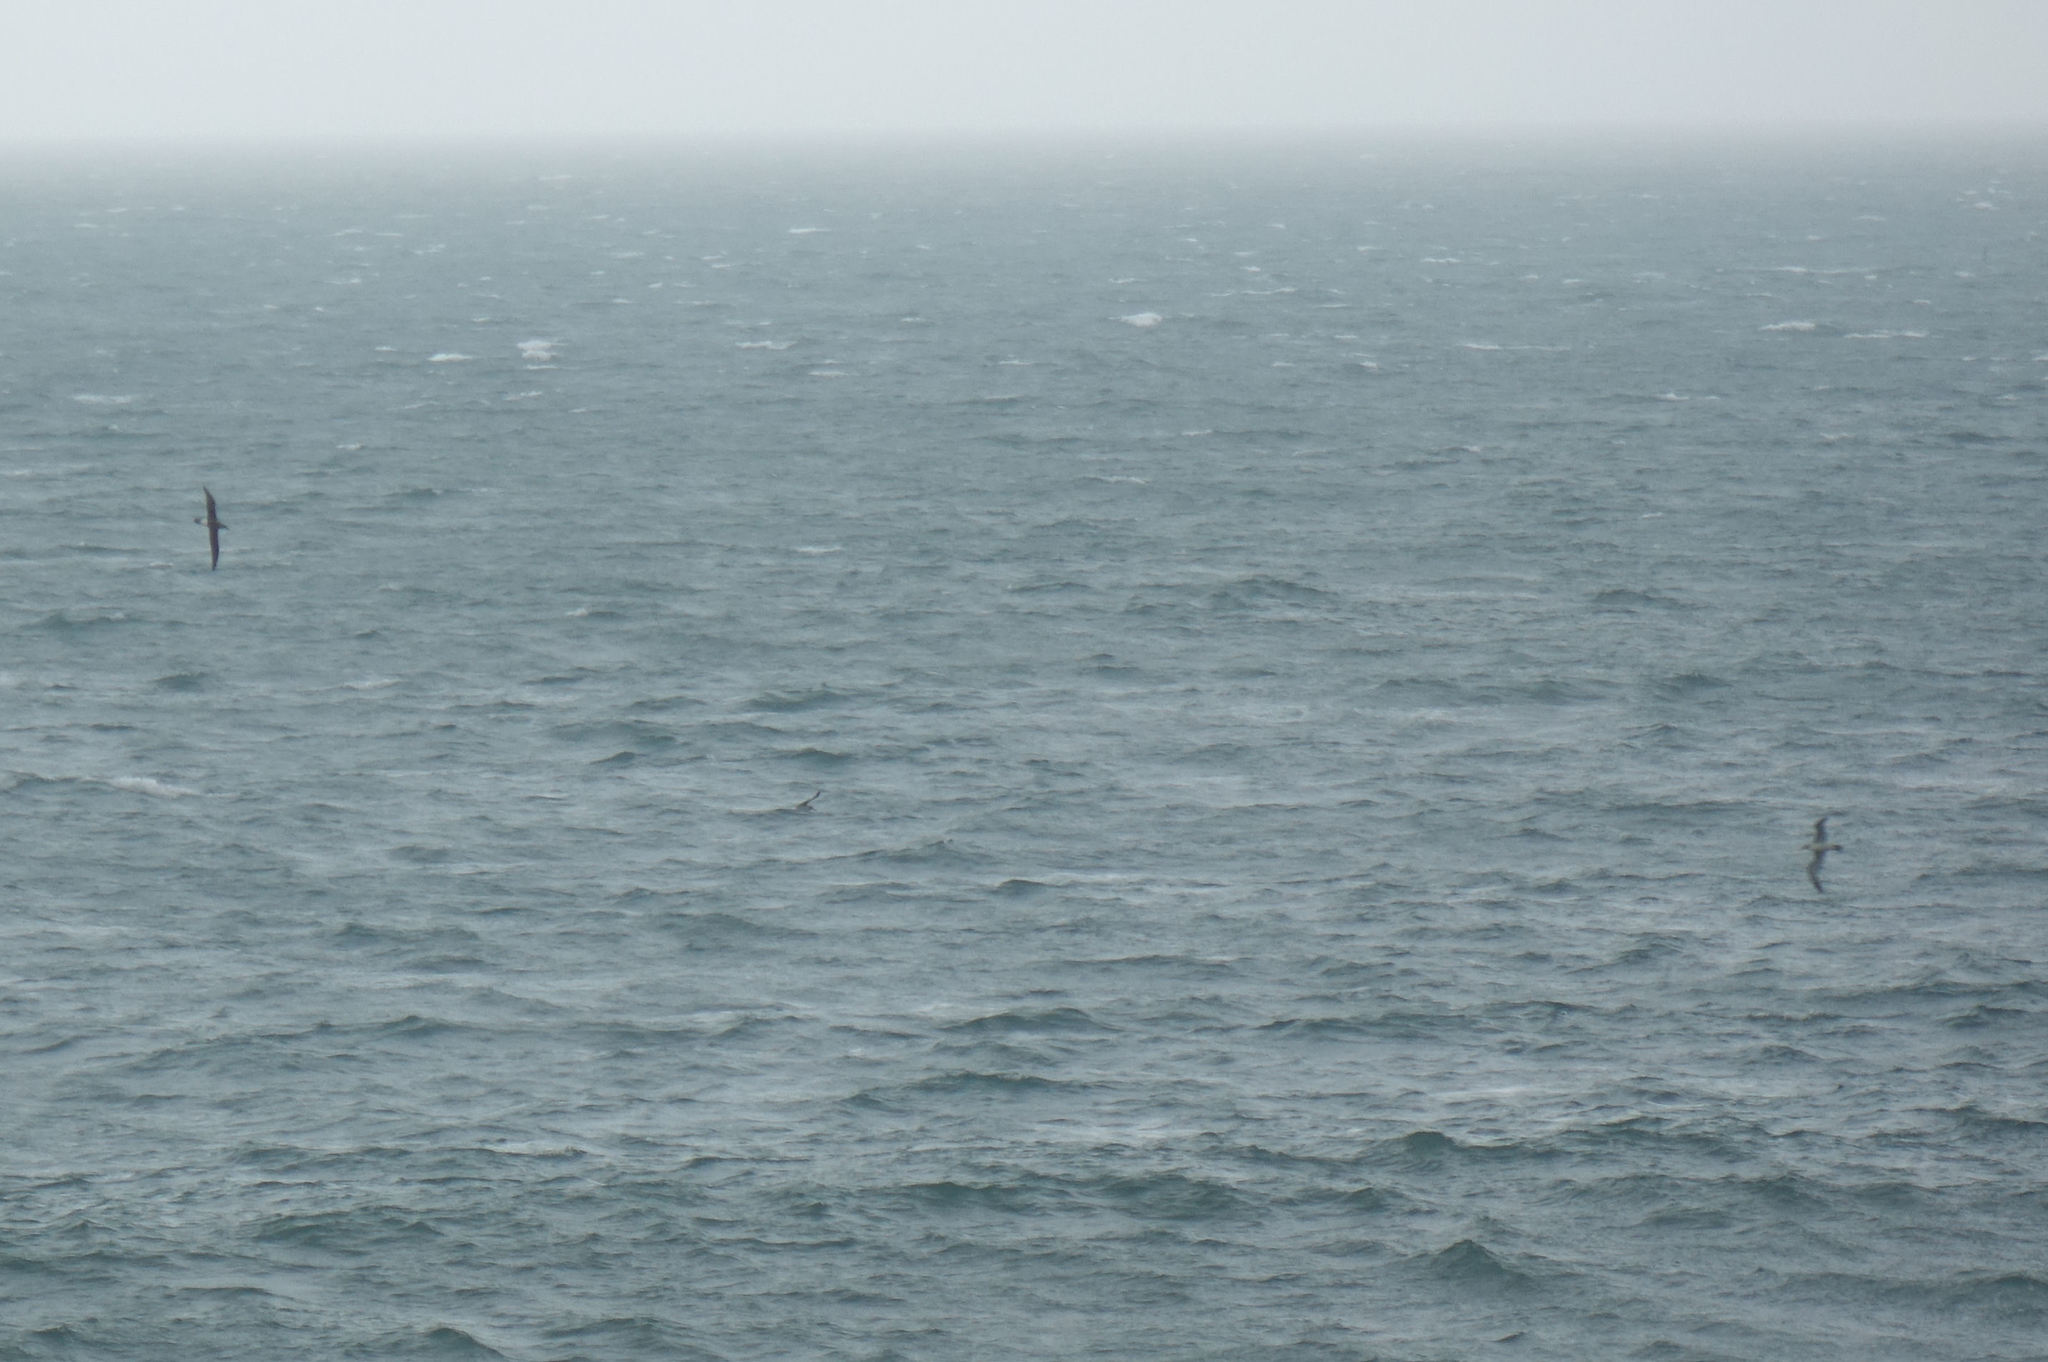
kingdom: Animalia
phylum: Chordata
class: Aves
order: Procellariiformes
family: Diomedeidae
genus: Thalassarche
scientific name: Thalassarche bulleri
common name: Buller's albatross
